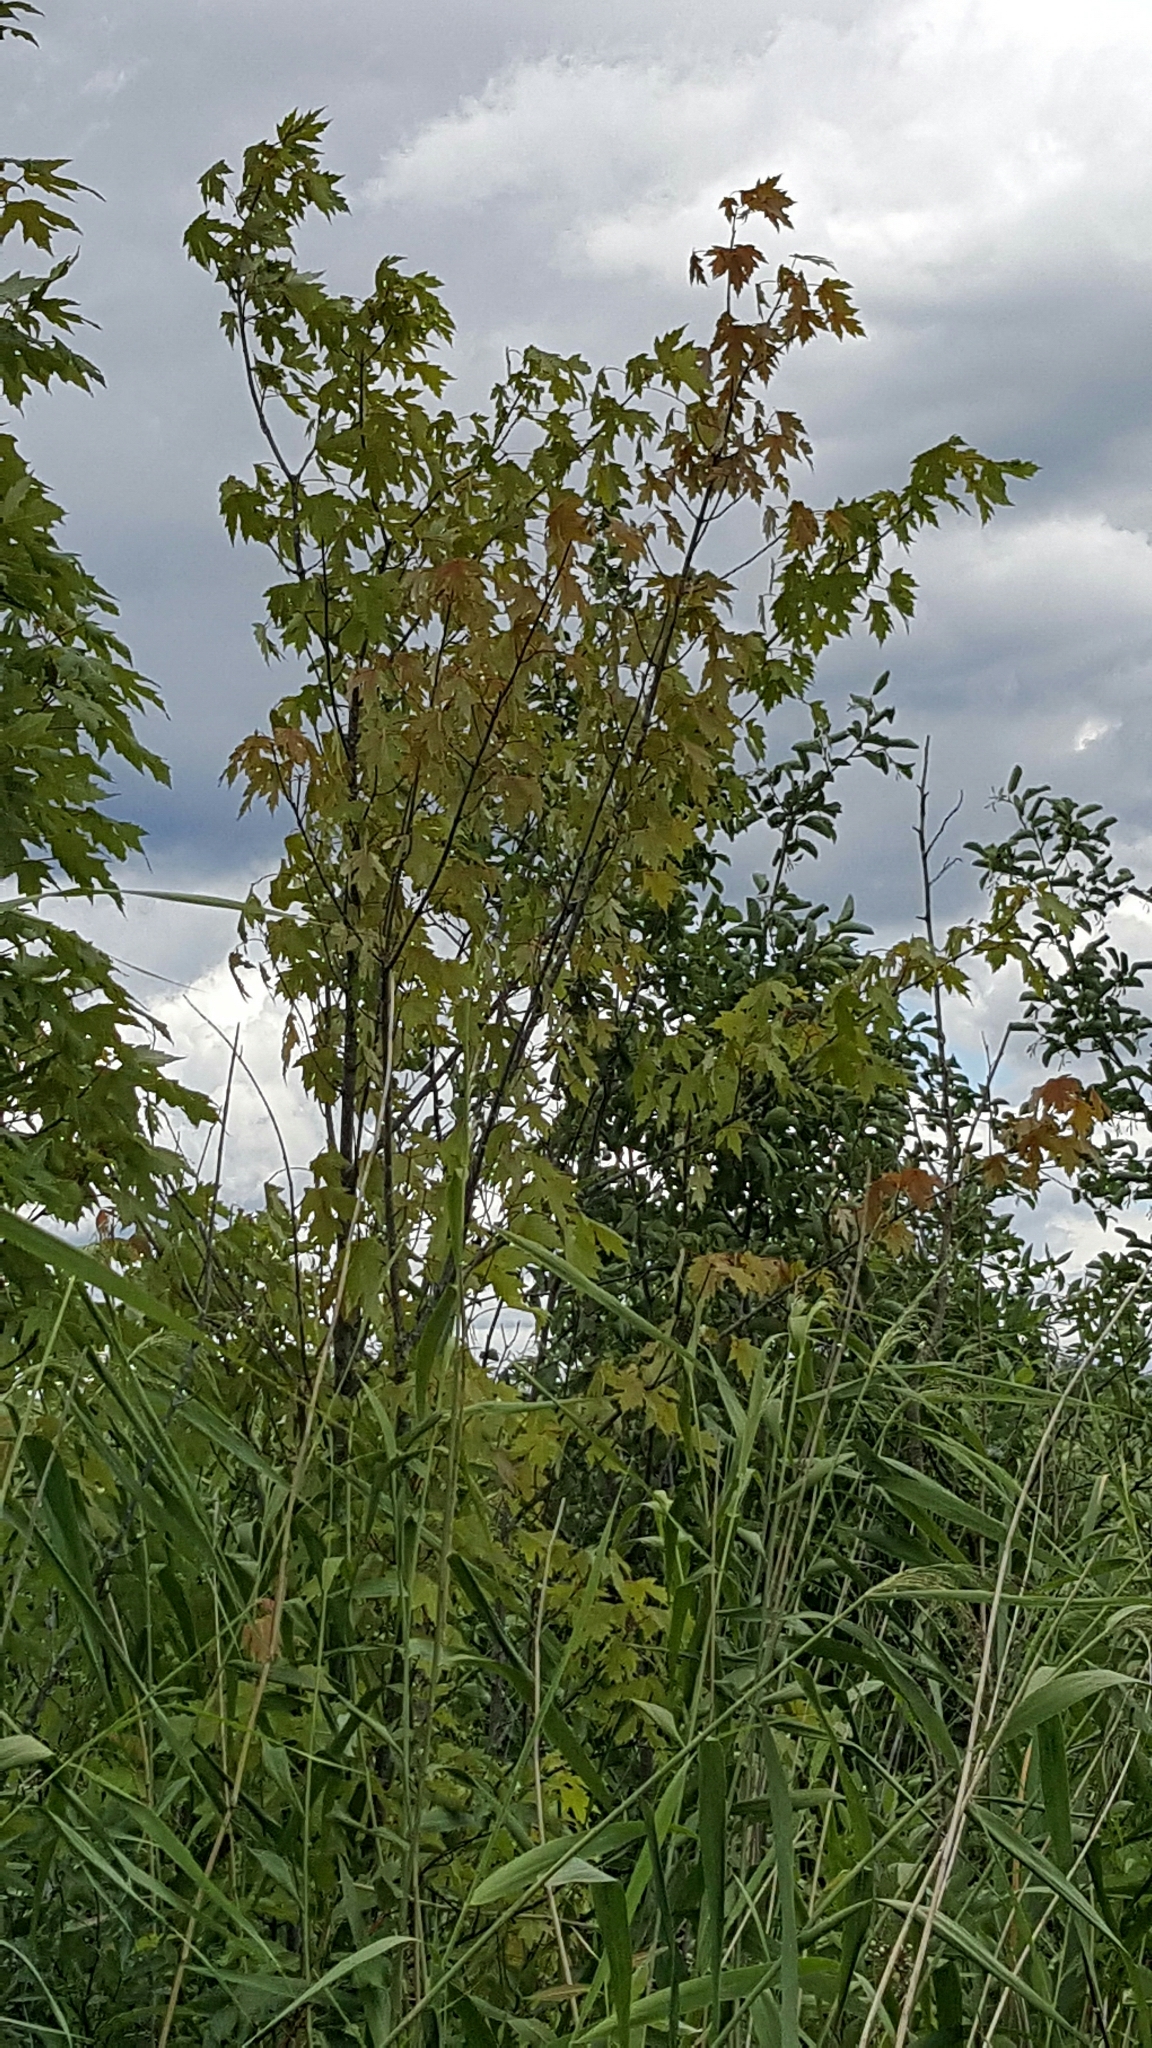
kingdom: Plantae
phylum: Tracheophyta
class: Magnoliopsida
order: Sapindales
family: Sapindaceae
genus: Acer
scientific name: Acer saccharinum
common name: Silver maple
